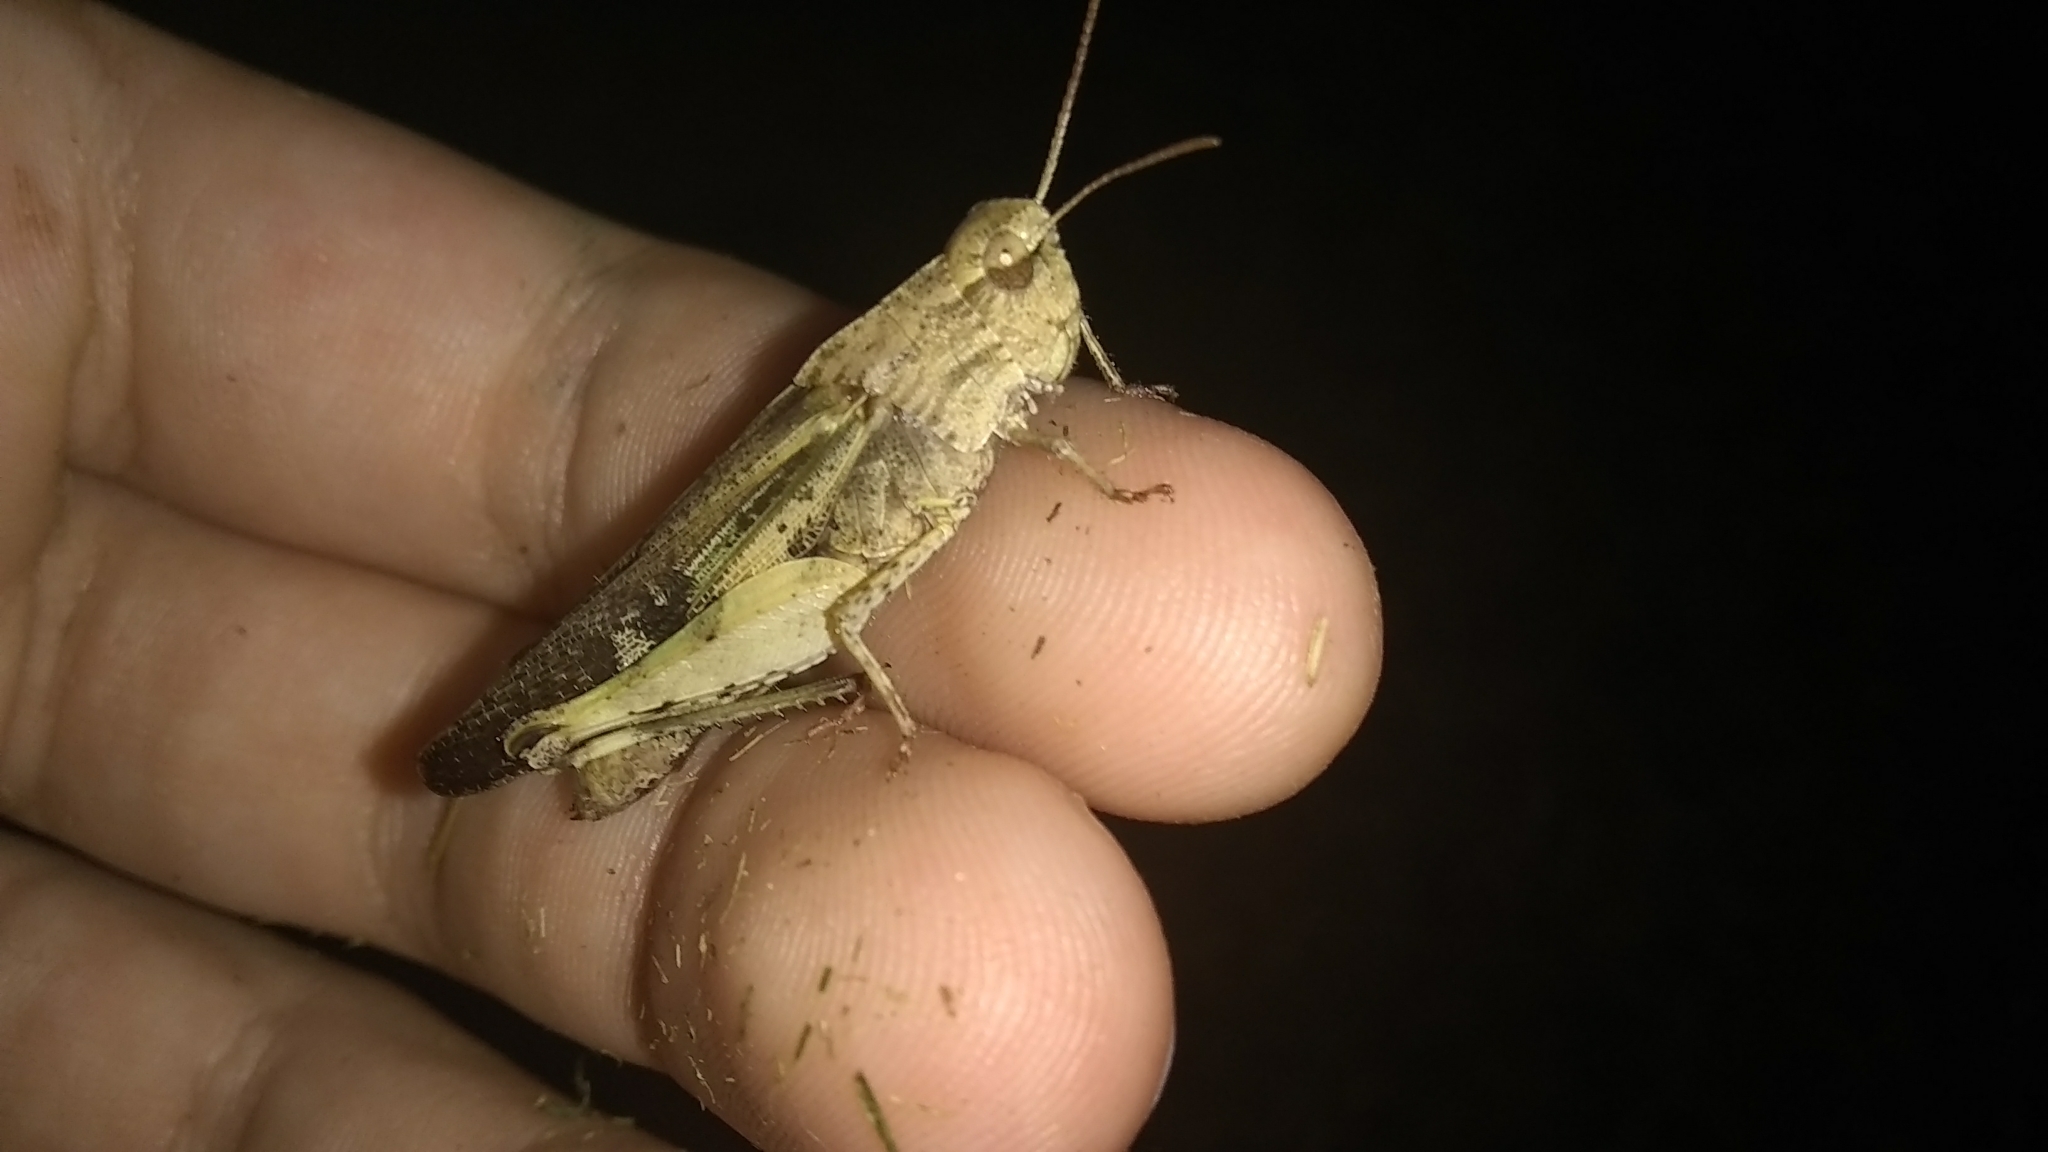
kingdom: Animalia
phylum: Arthropoda
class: Insecta
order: Orthoptera
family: Acrididae
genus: Chortophaga
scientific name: Chortophaga viridifasciata
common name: Green-striped grasshopper
